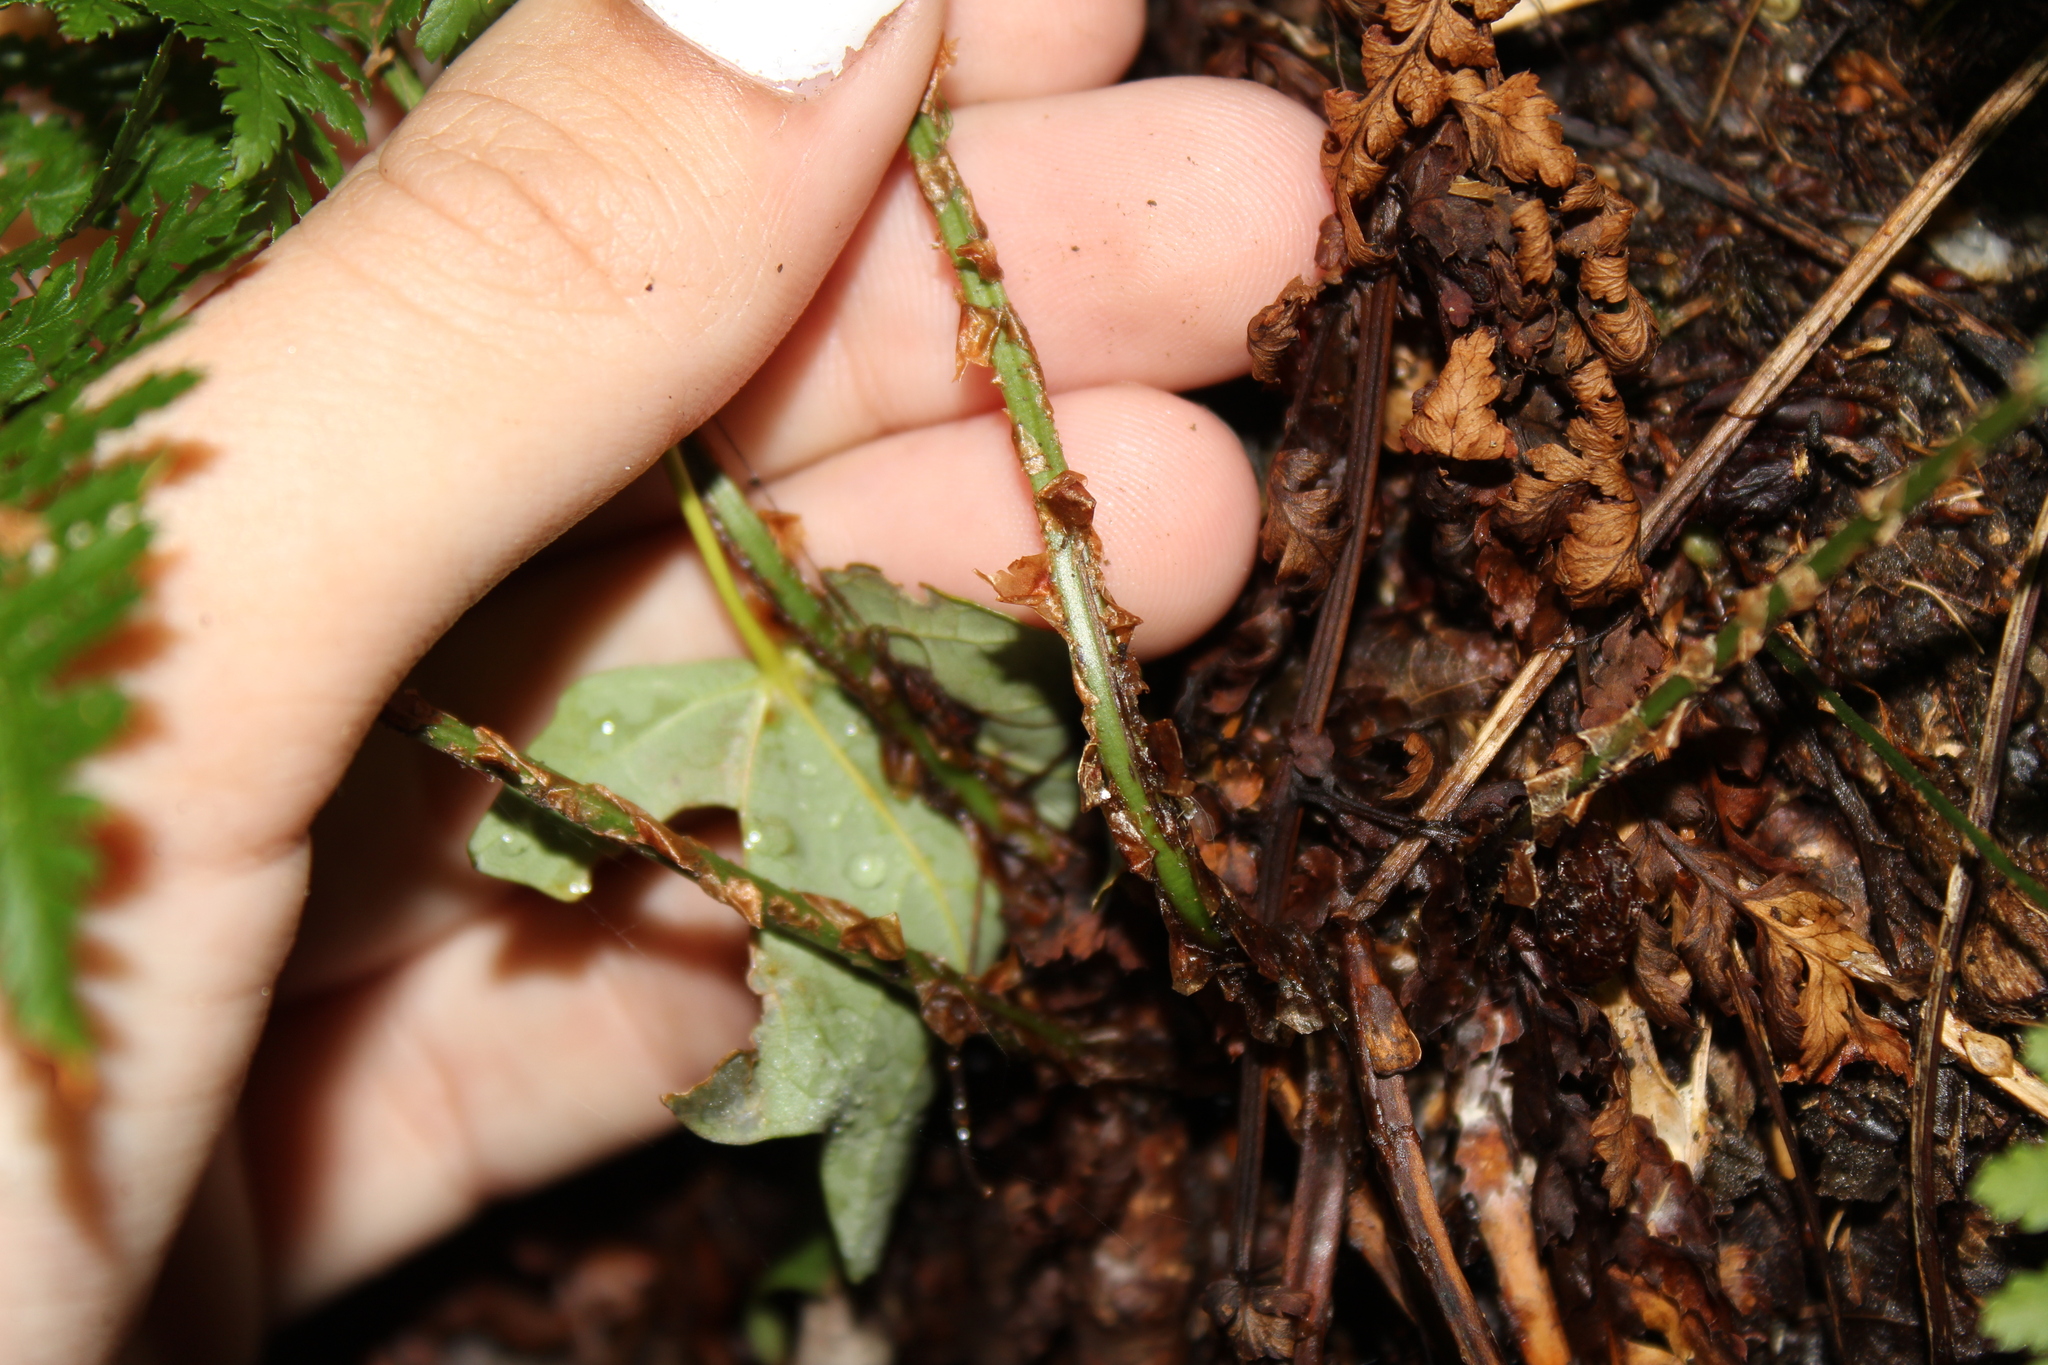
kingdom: Plantae
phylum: Tracheophyta
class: Polypodiopsida
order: Polypodiales
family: Dryopteridaceae
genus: Dryopteris
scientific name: Dryopteris intermedia
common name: Evergreen wood fern
